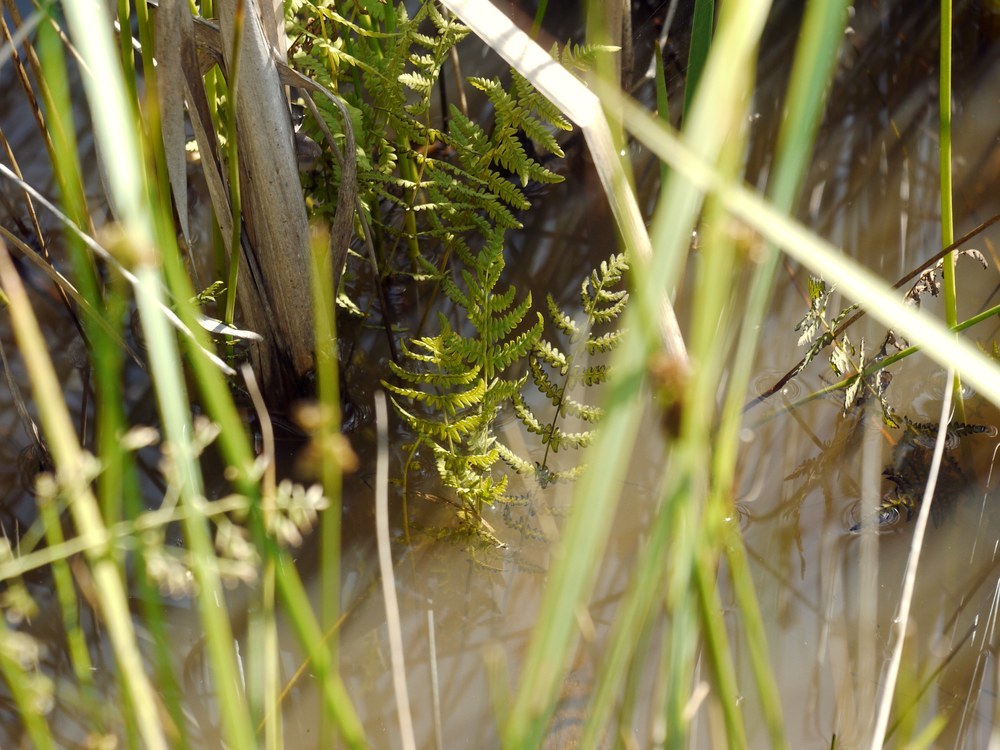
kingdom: Plantae
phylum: Tracheophyta
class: Polypodiopsida
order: Polypodiales
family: Thelypteridaceae
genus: Thelypteris
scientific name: Thelypteris palustris
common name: Marsh fern
